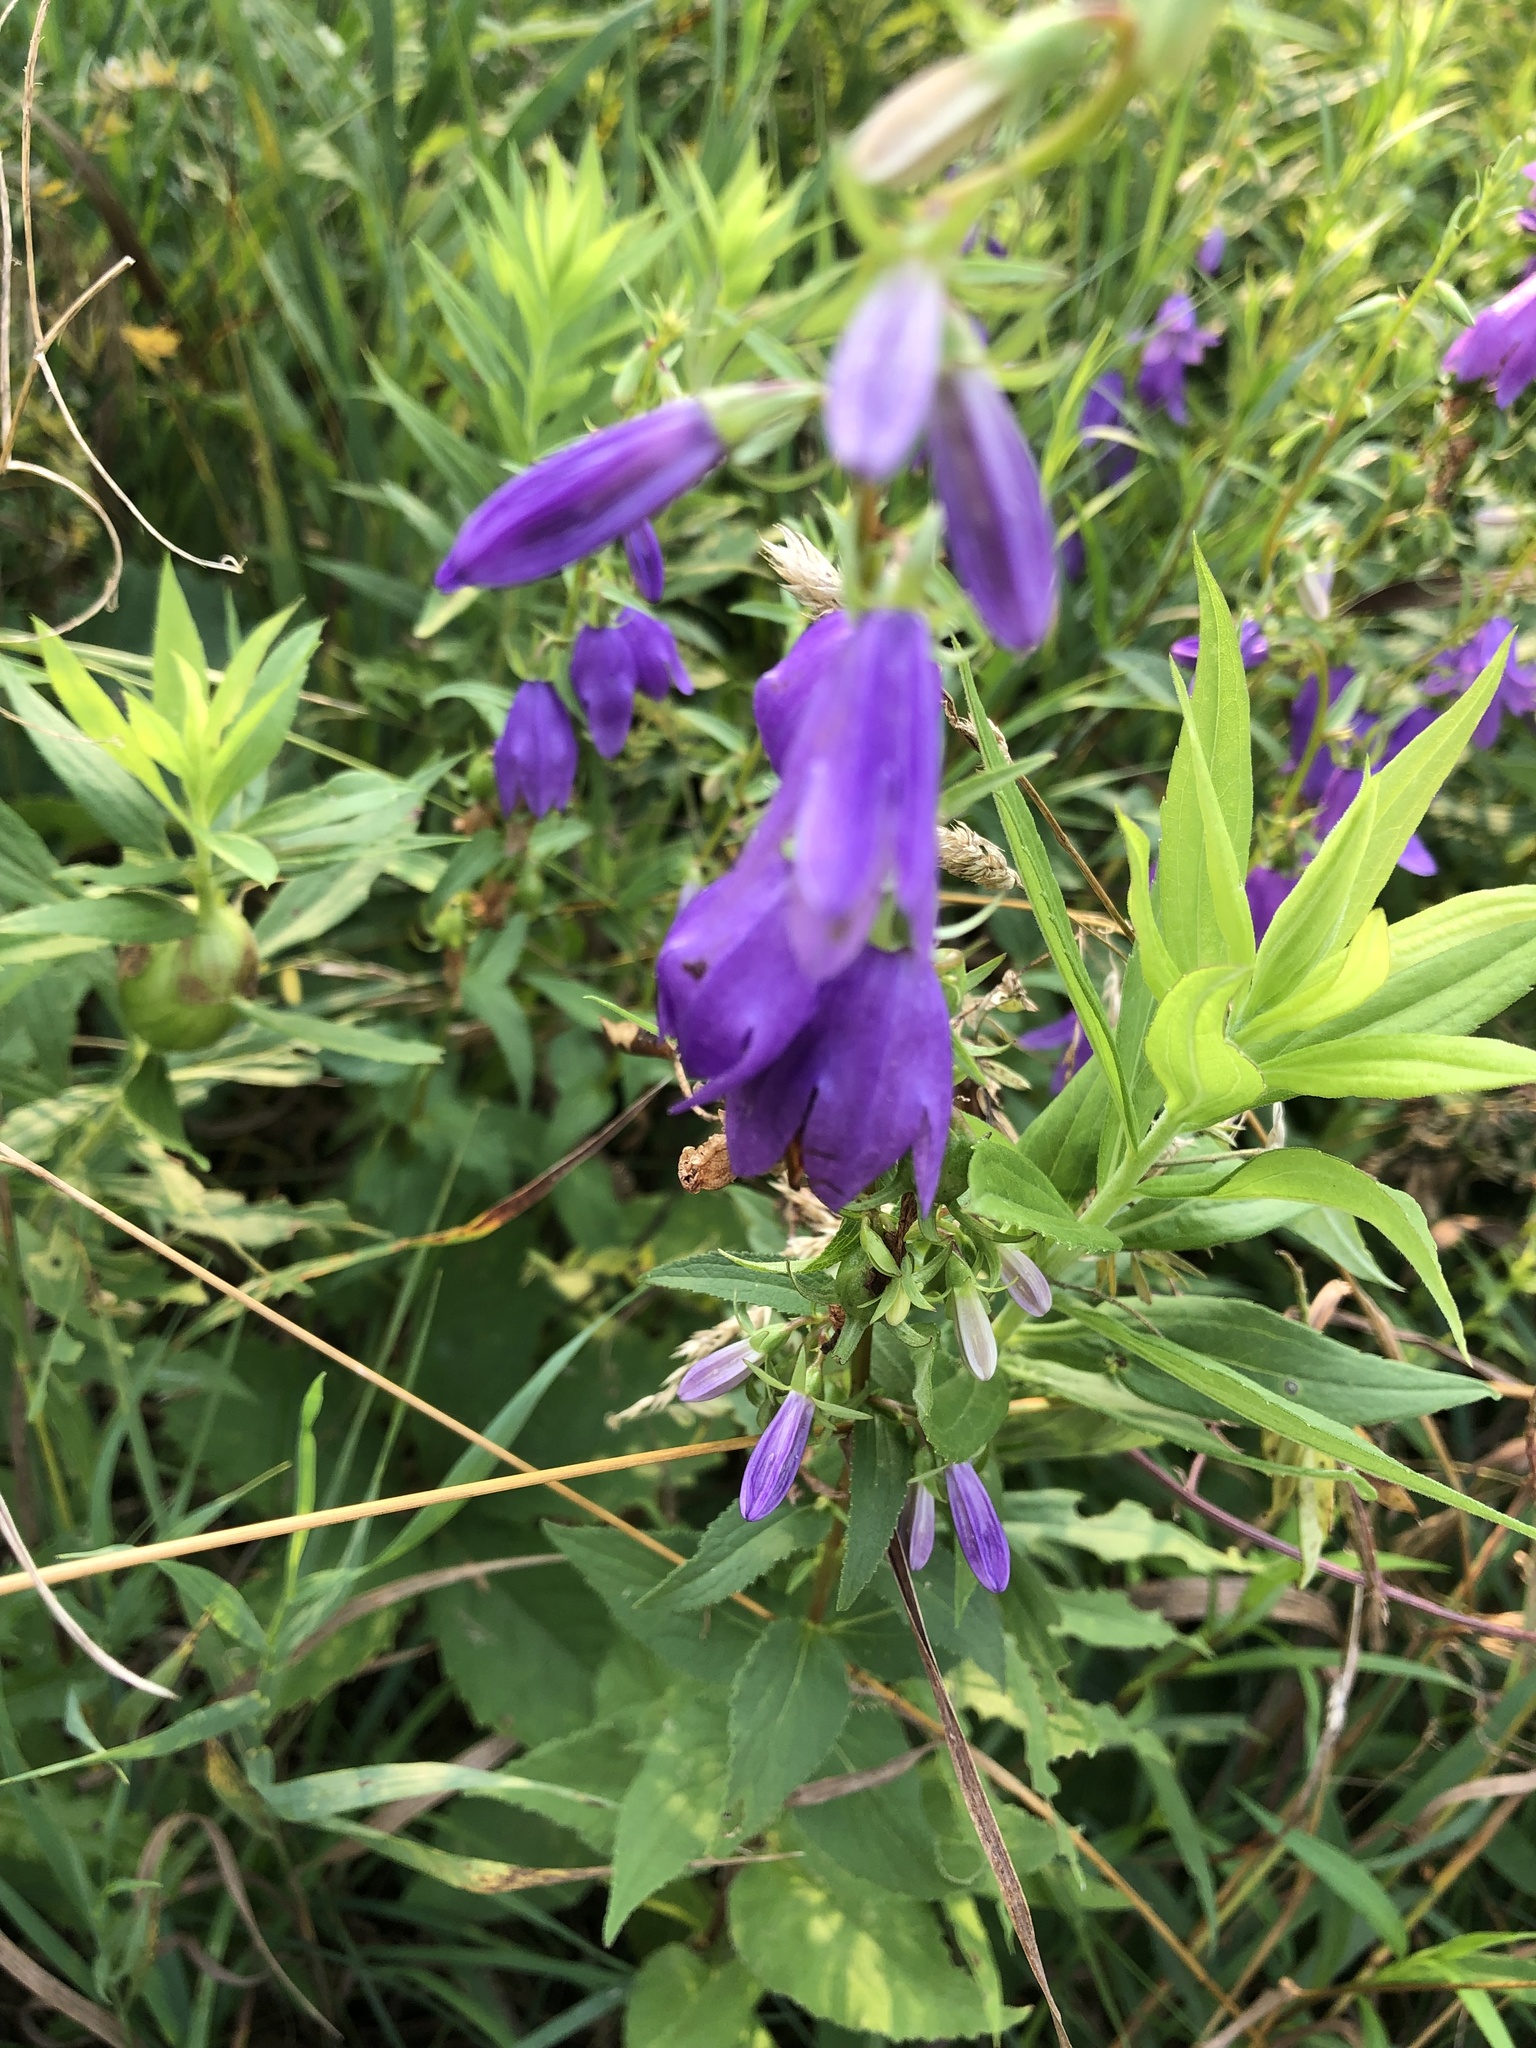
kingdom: Plantae
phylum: Tracheophyta
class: Magnoliopsida
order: Asterales
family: Campanulaceae
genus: Campanula
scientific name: Campanula rapunculoides
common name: Creeping bellflower
